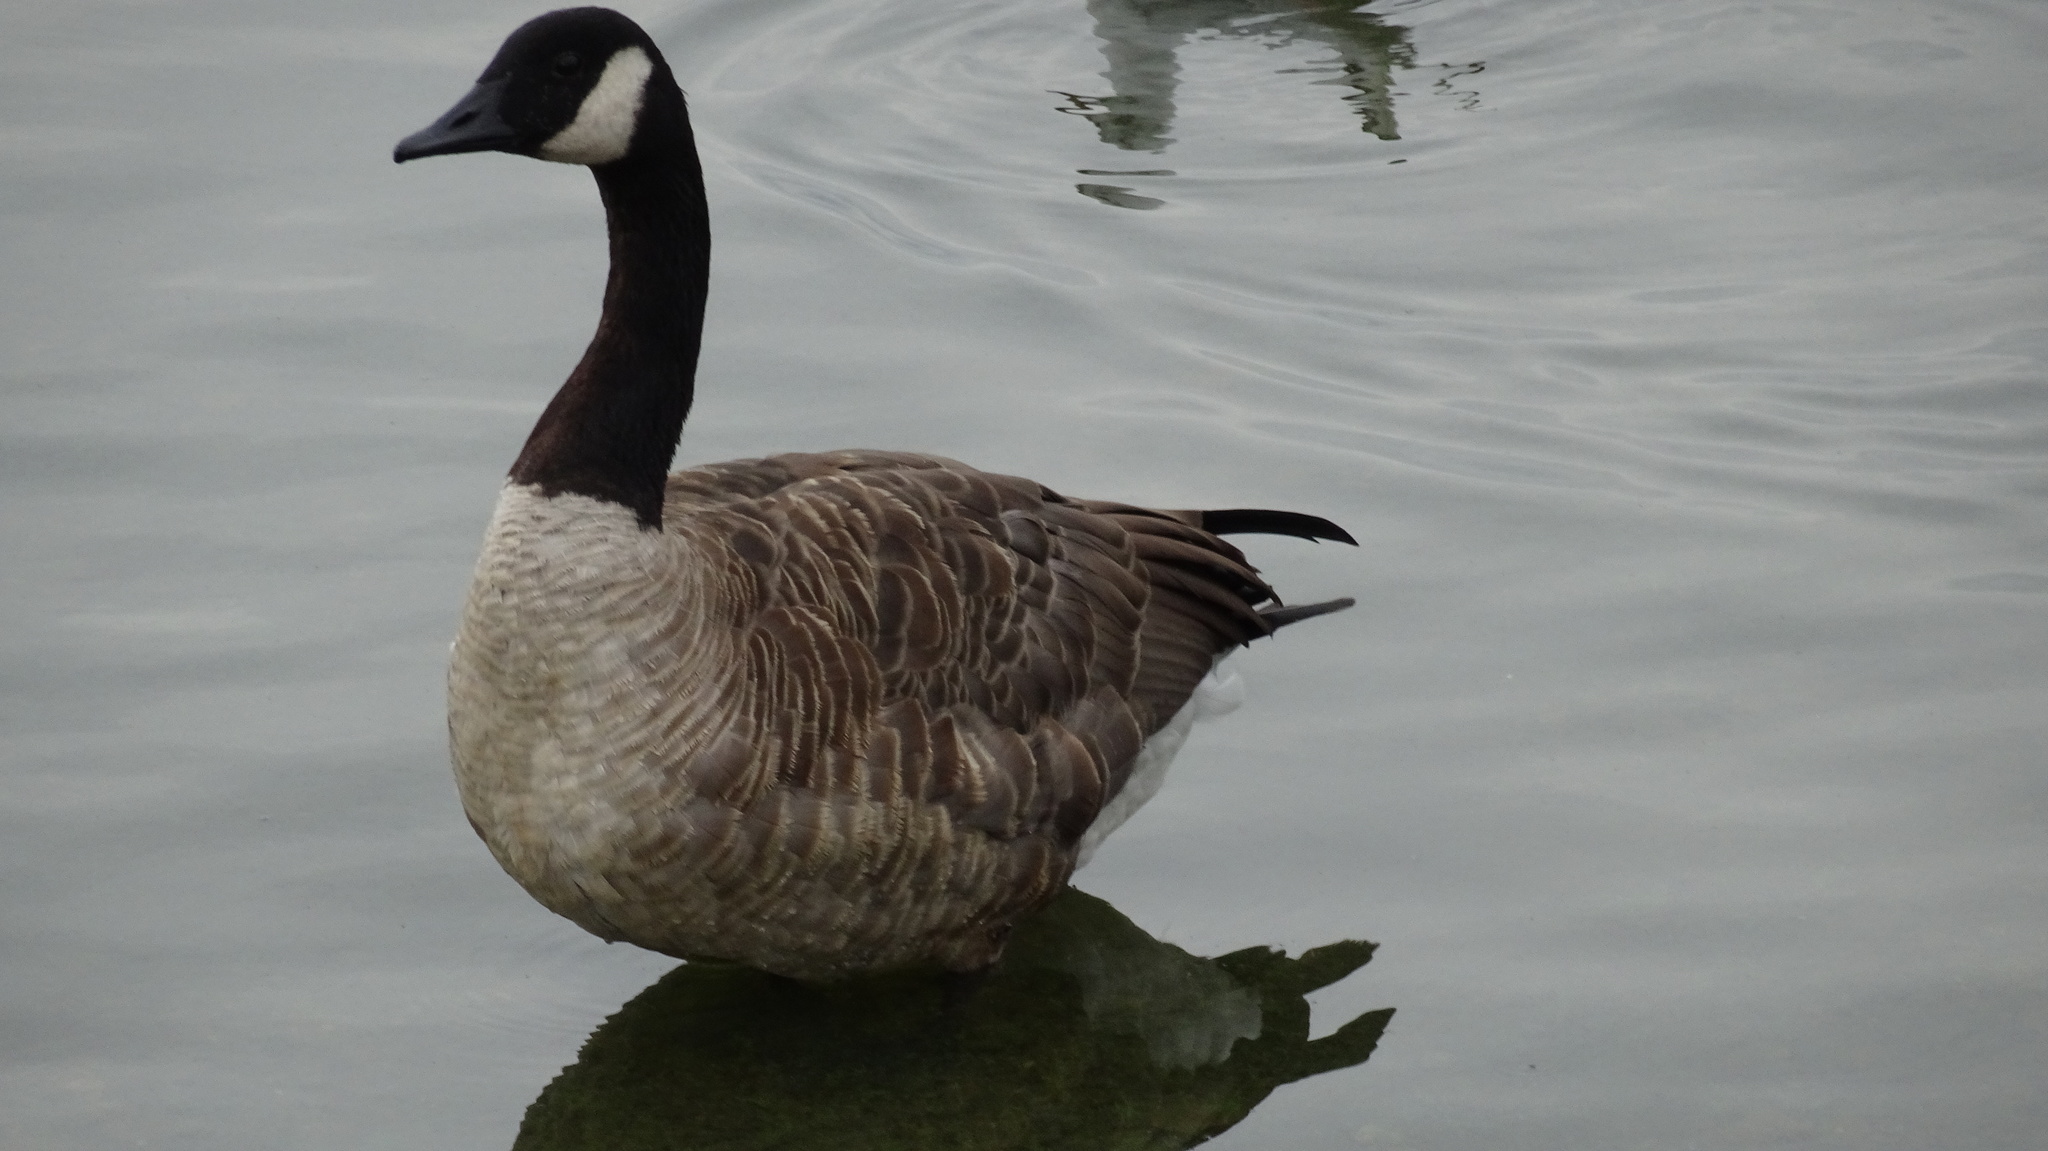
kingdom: Animalia
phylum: Chordata
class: Aves
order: Anseriformes
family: Anatidae
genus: Branta
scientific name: Branta canadensis
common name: Canada goose
